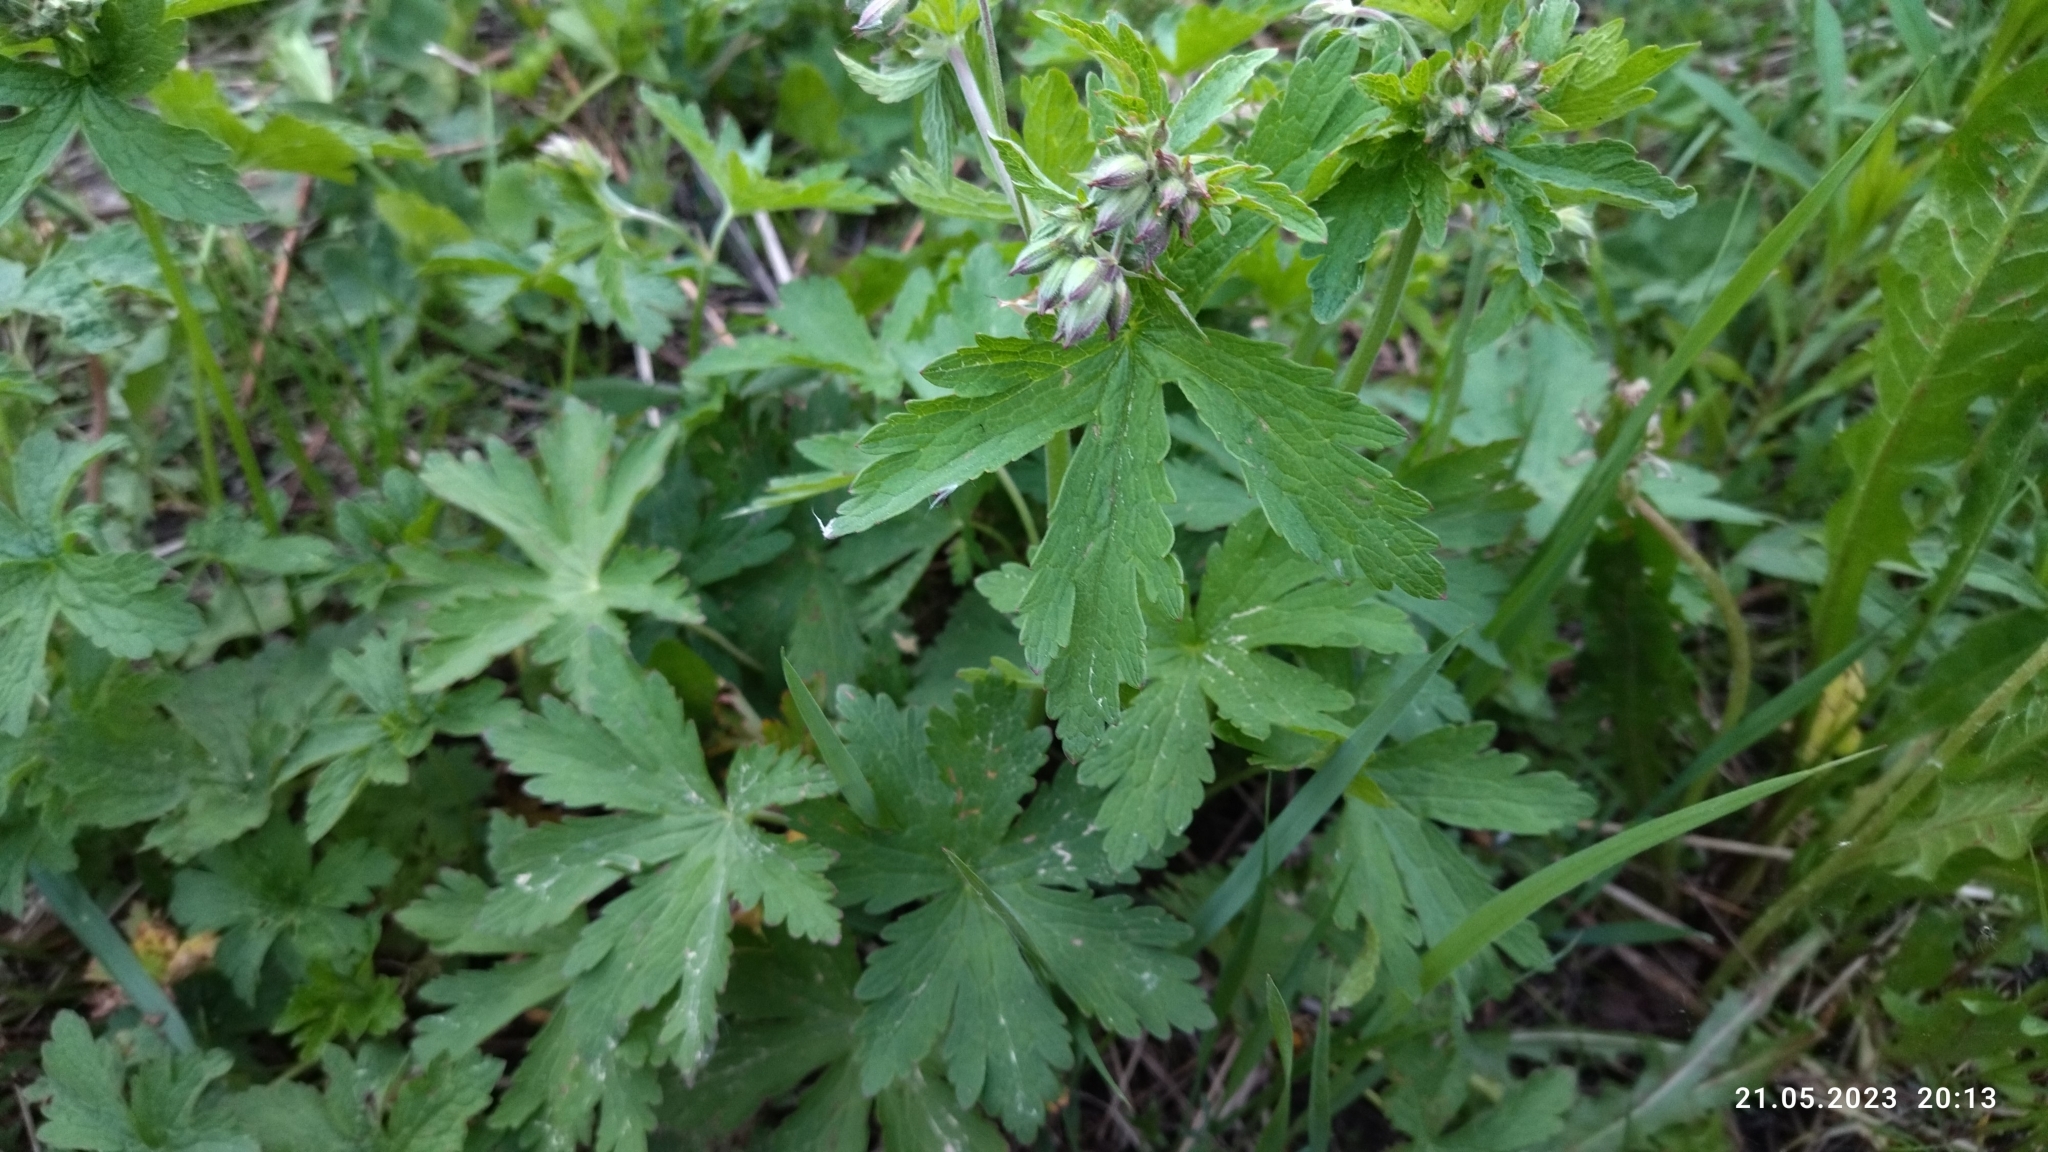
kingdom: Plantae
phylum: Tracheophyta
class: Magnoliopsida
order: Geraniales
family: Geraniaceae
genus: Geranium
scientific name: Geranium sylvaticum
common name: Wood crane's-bill
